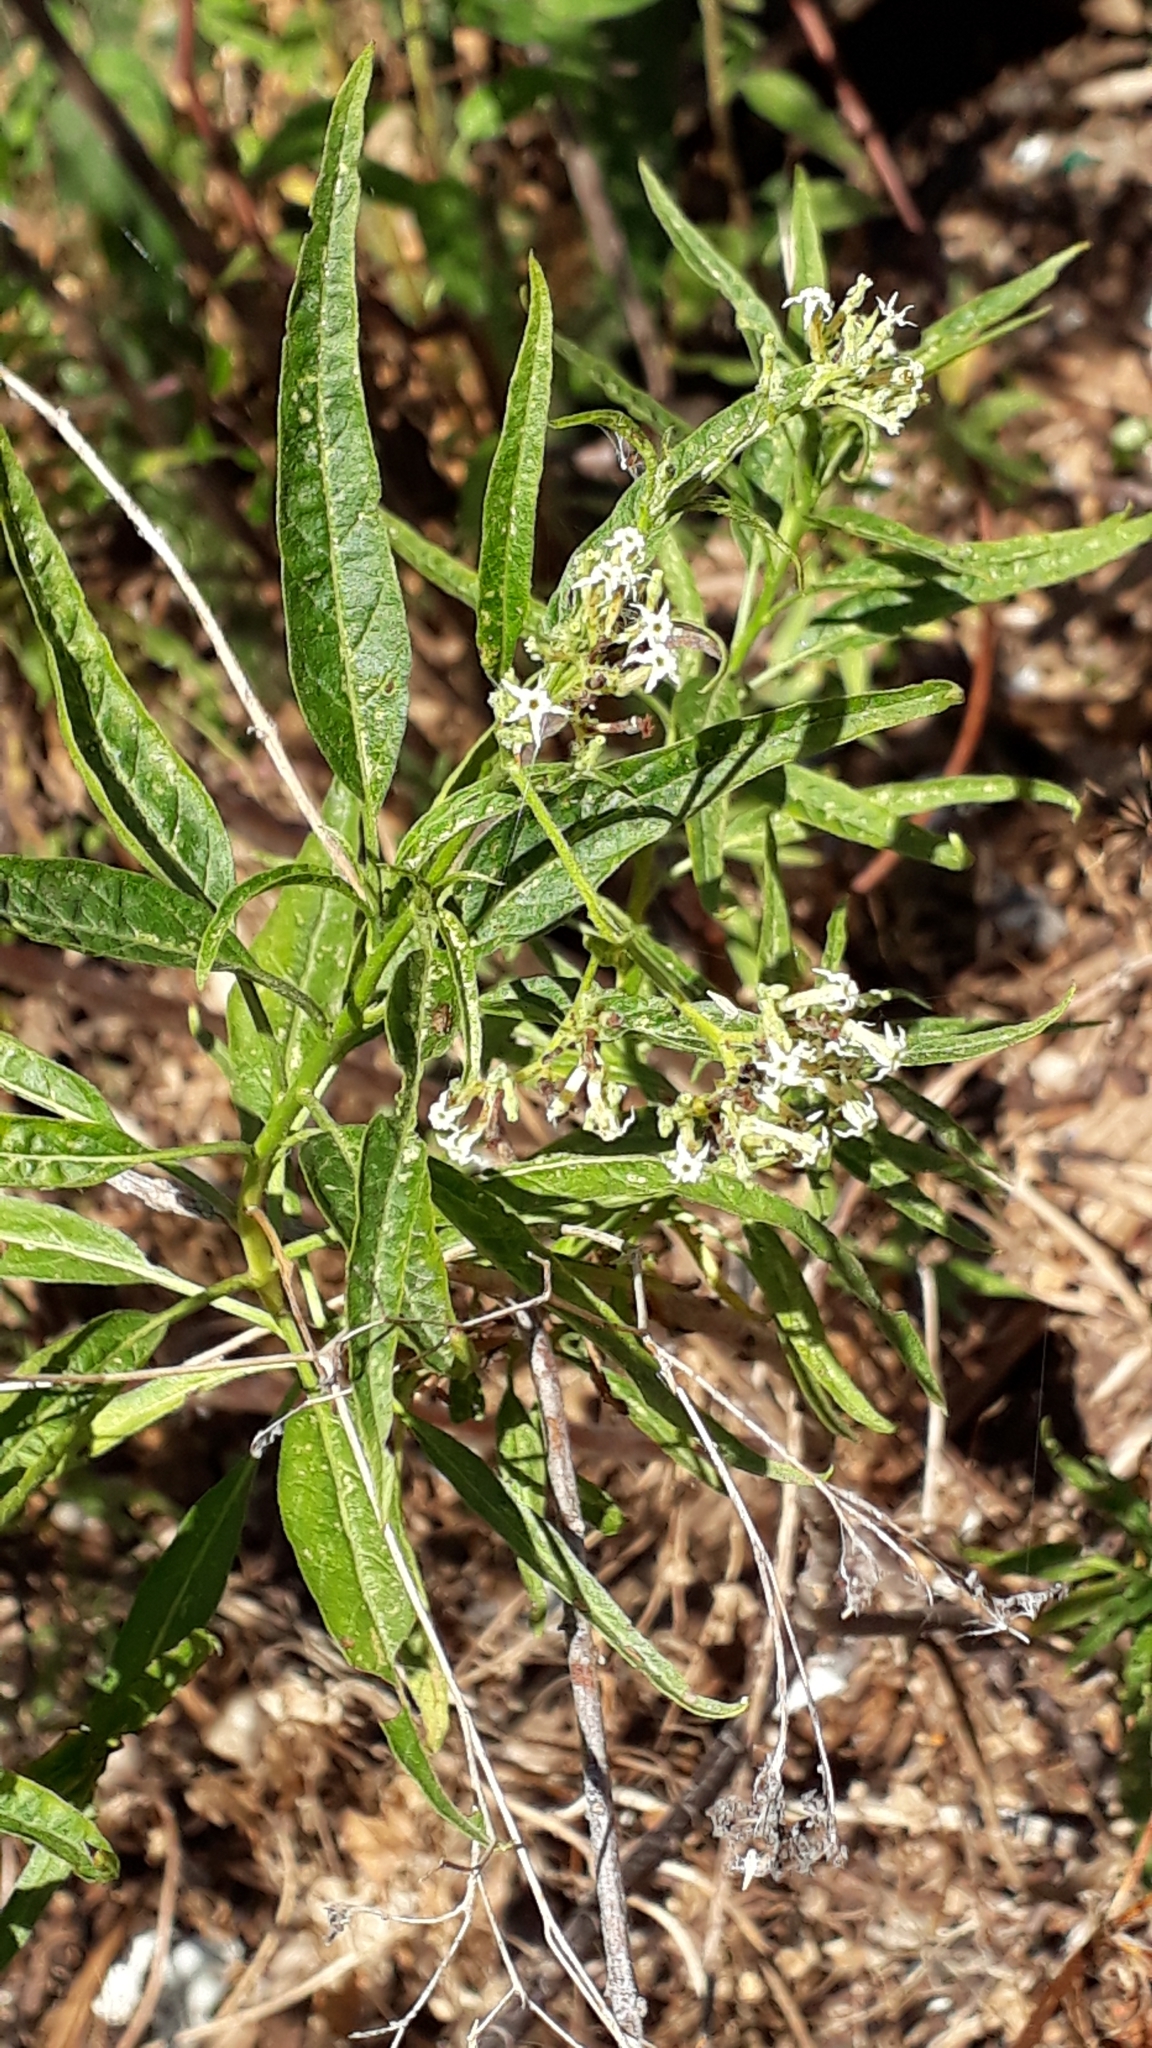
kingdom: Plantae
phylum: Tracheophyta
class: Magnoliopsida
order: Boraginales
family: Heliotropiaceae
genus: Heliotropium
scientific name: Heliotropium messerschmidioides
